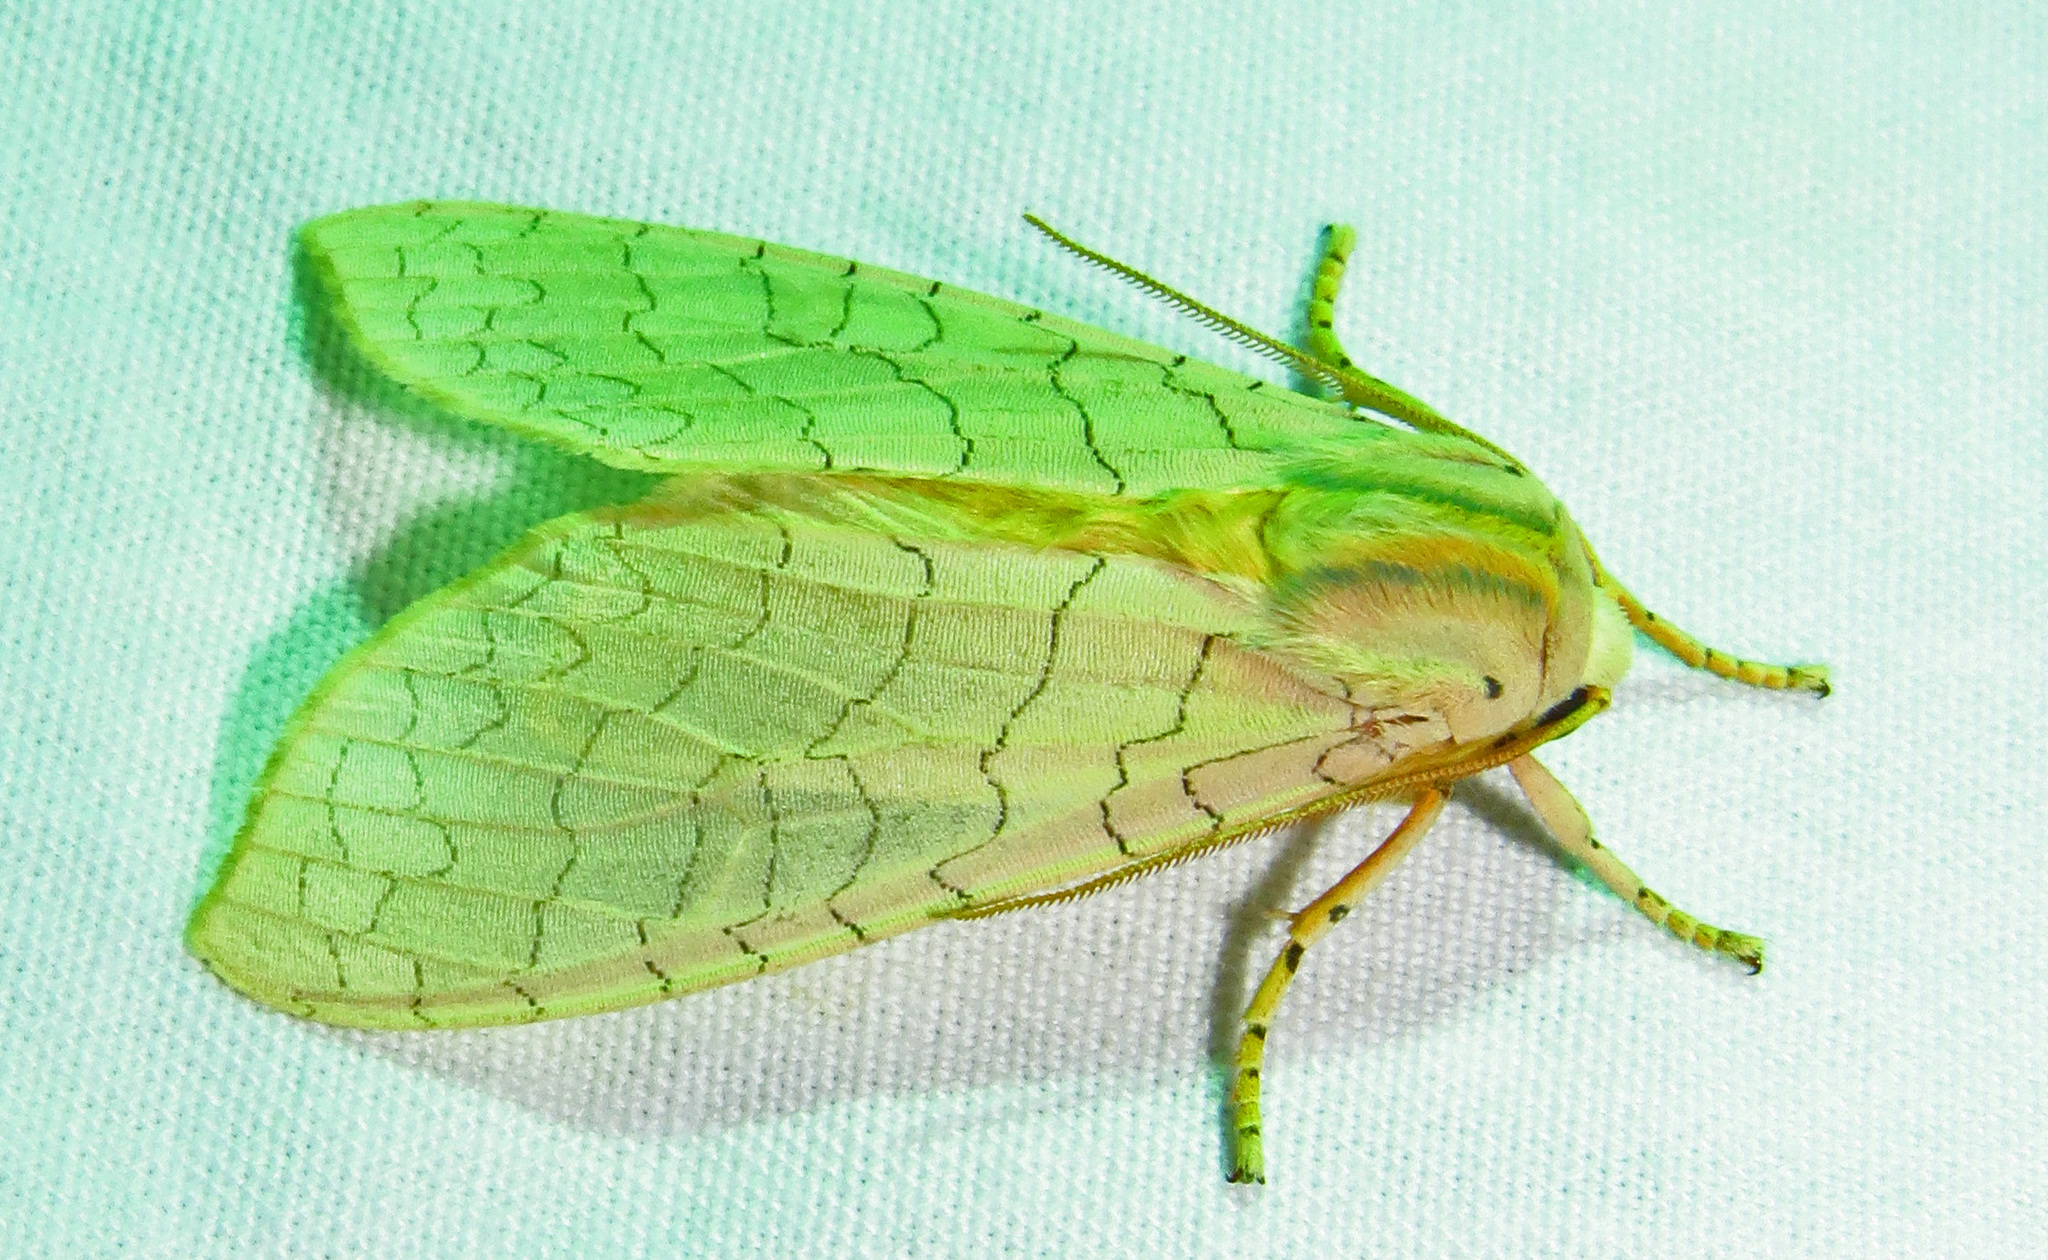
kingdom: Animalia
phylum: Arthropoda
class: Insecta
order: Lepidoptera
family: Erebidae
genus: Halysidota
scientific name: Halysidota
